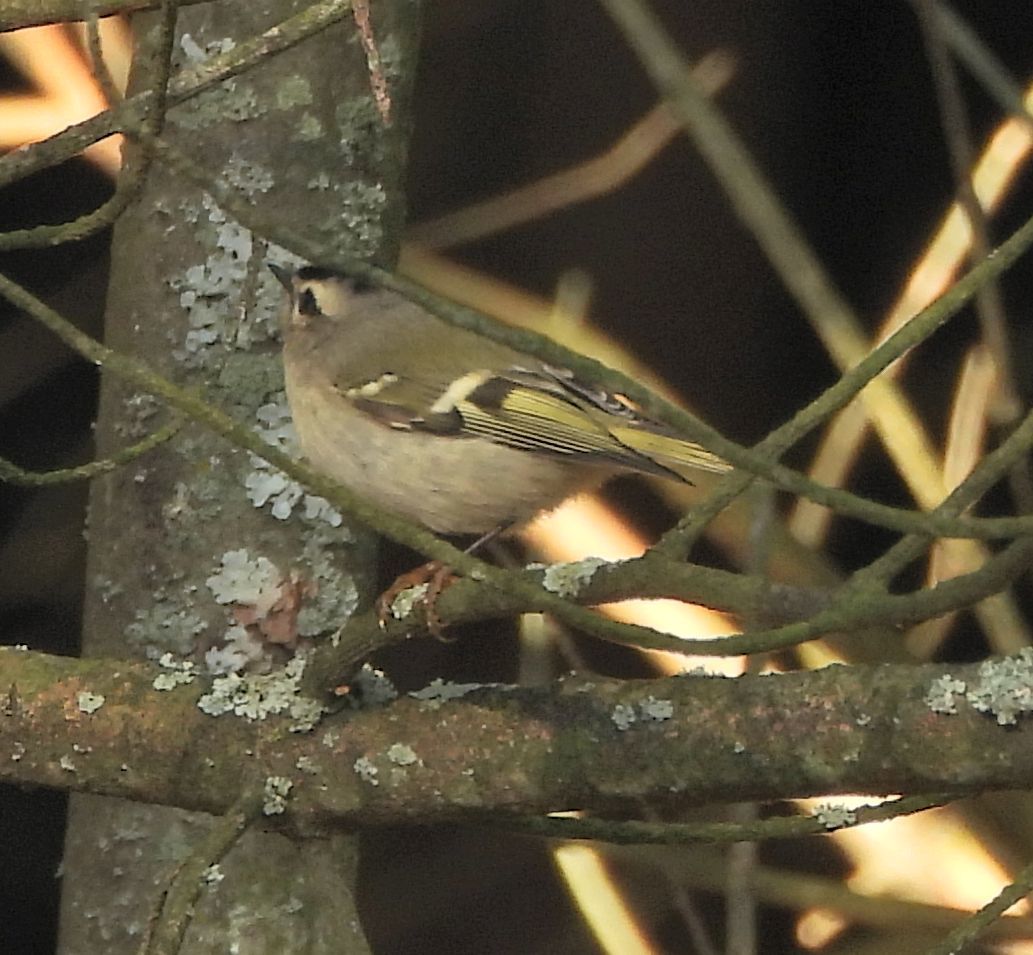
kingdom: Animalia
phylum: Chordata
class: Aves
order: Passeriformes
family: Regulidae
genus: Regulus
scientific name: Regulus satrapa
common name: Golden-crowned kinglet
